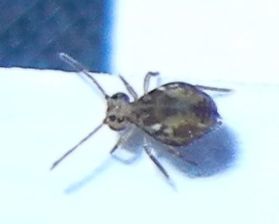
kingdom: Animalia
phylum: Arthropoda
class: Collembola
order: Symphypleona
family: Dicyrtomidae
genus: Dicyrtomina
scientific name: Dicyrtomina saundersi
